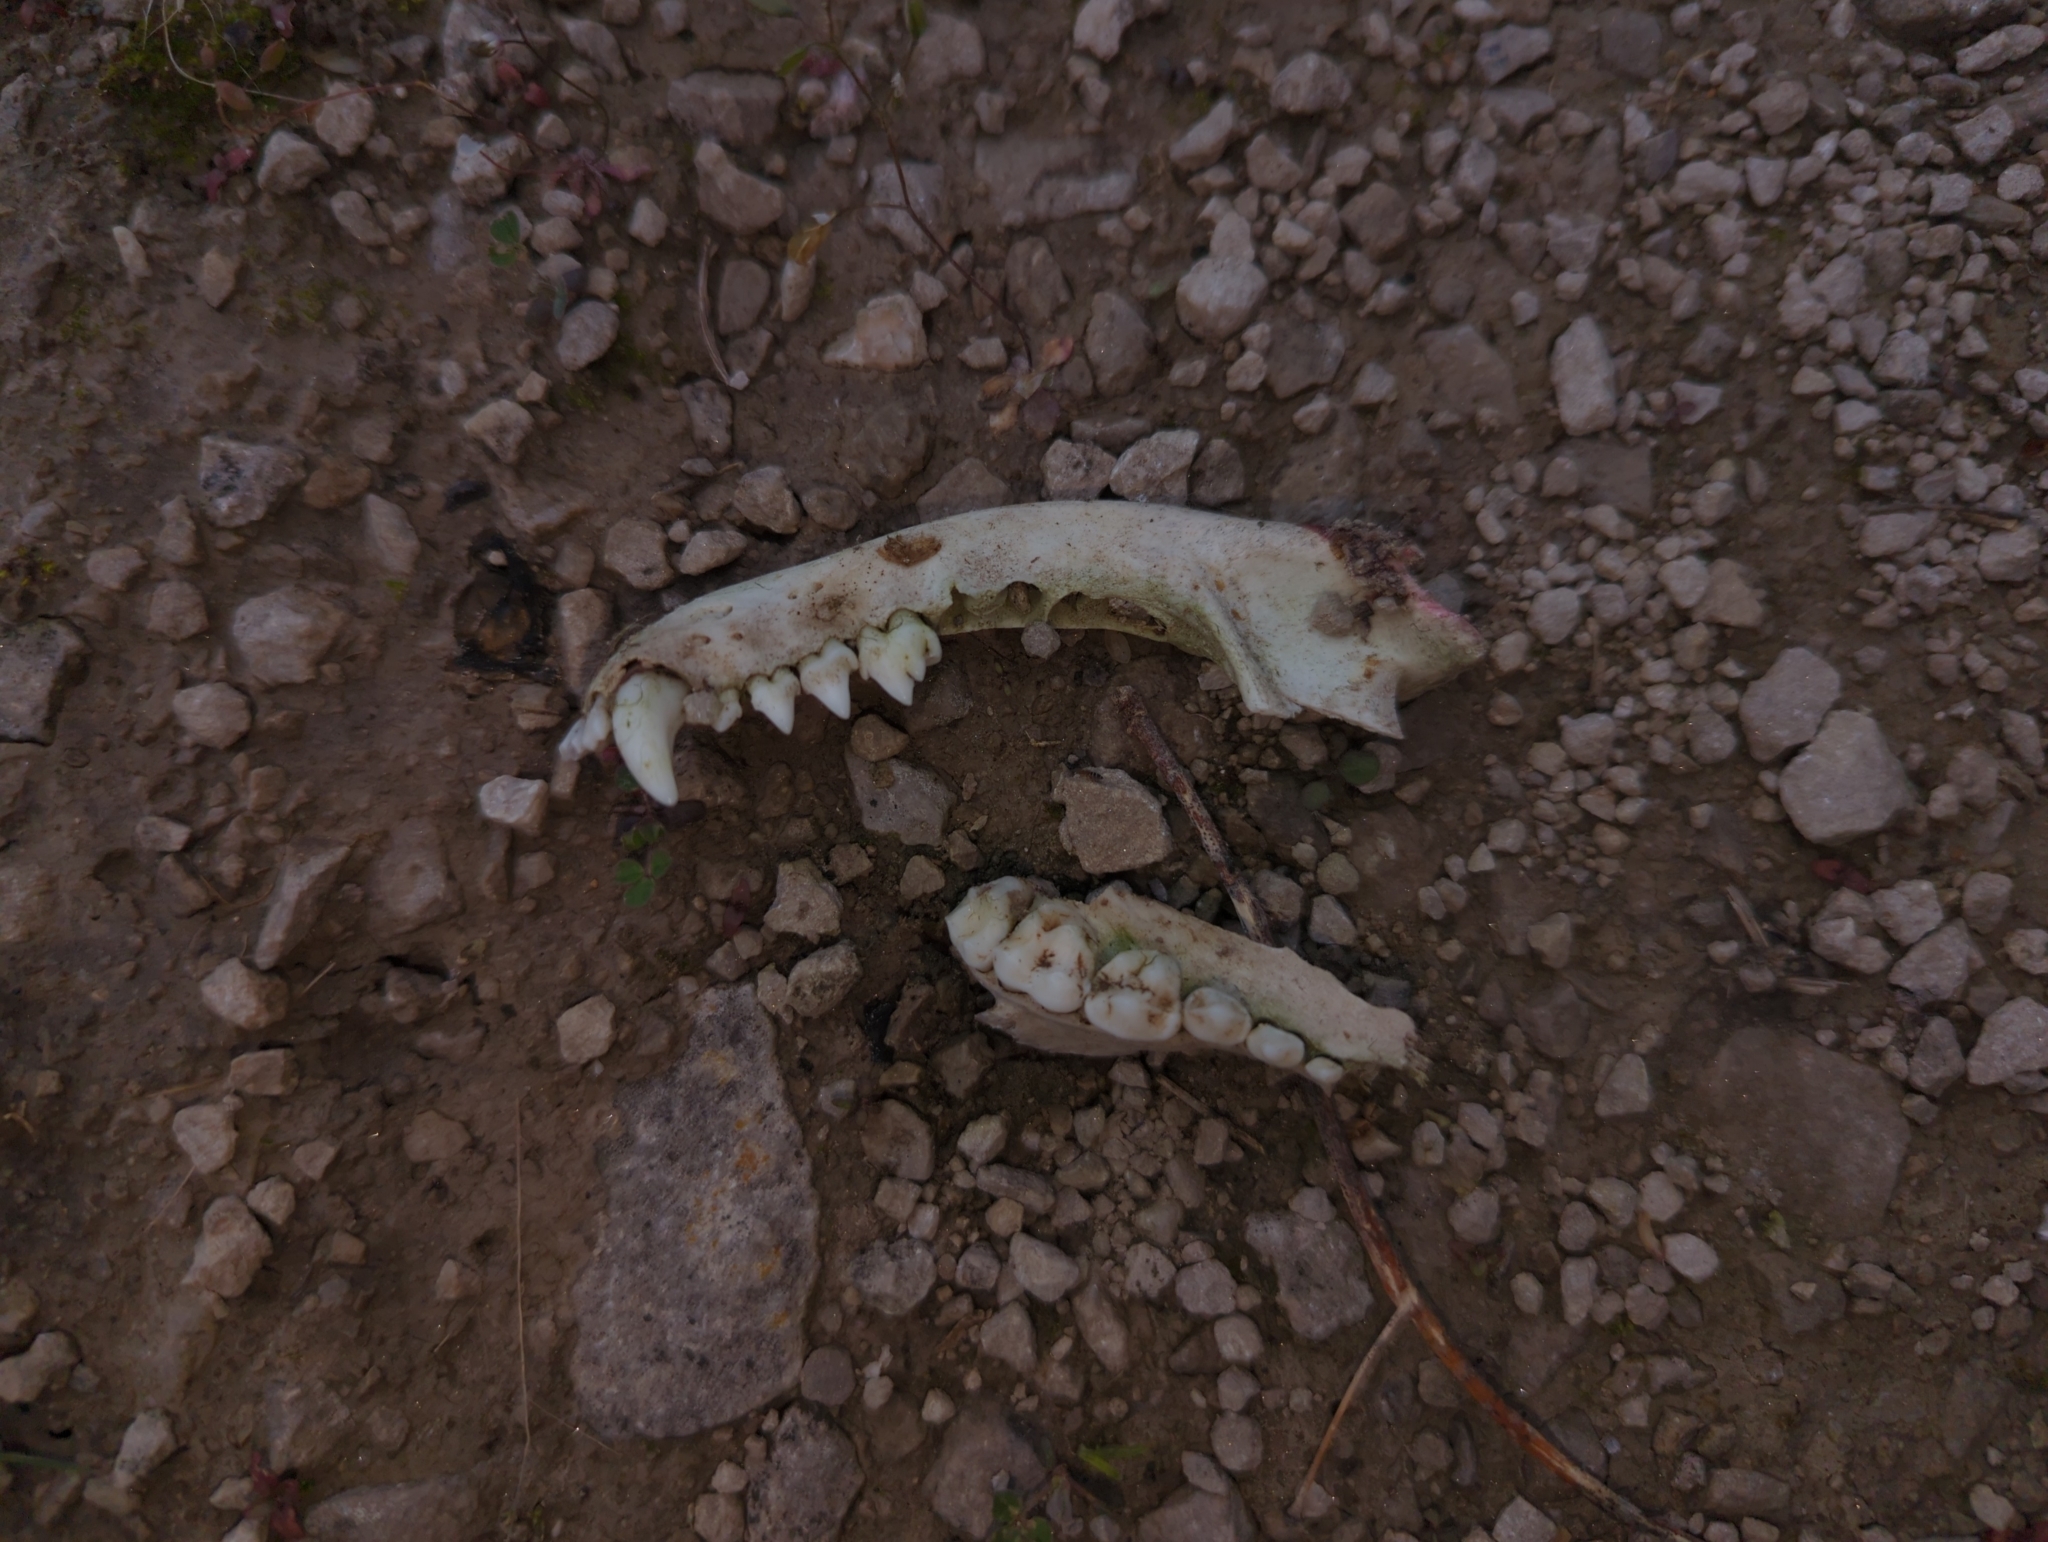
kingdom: Animalia
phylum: Chordata
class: Mammalia
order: Carnivora
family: Procyonidae
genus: Procyon
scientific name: Procyon lotor
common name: Raccoon
